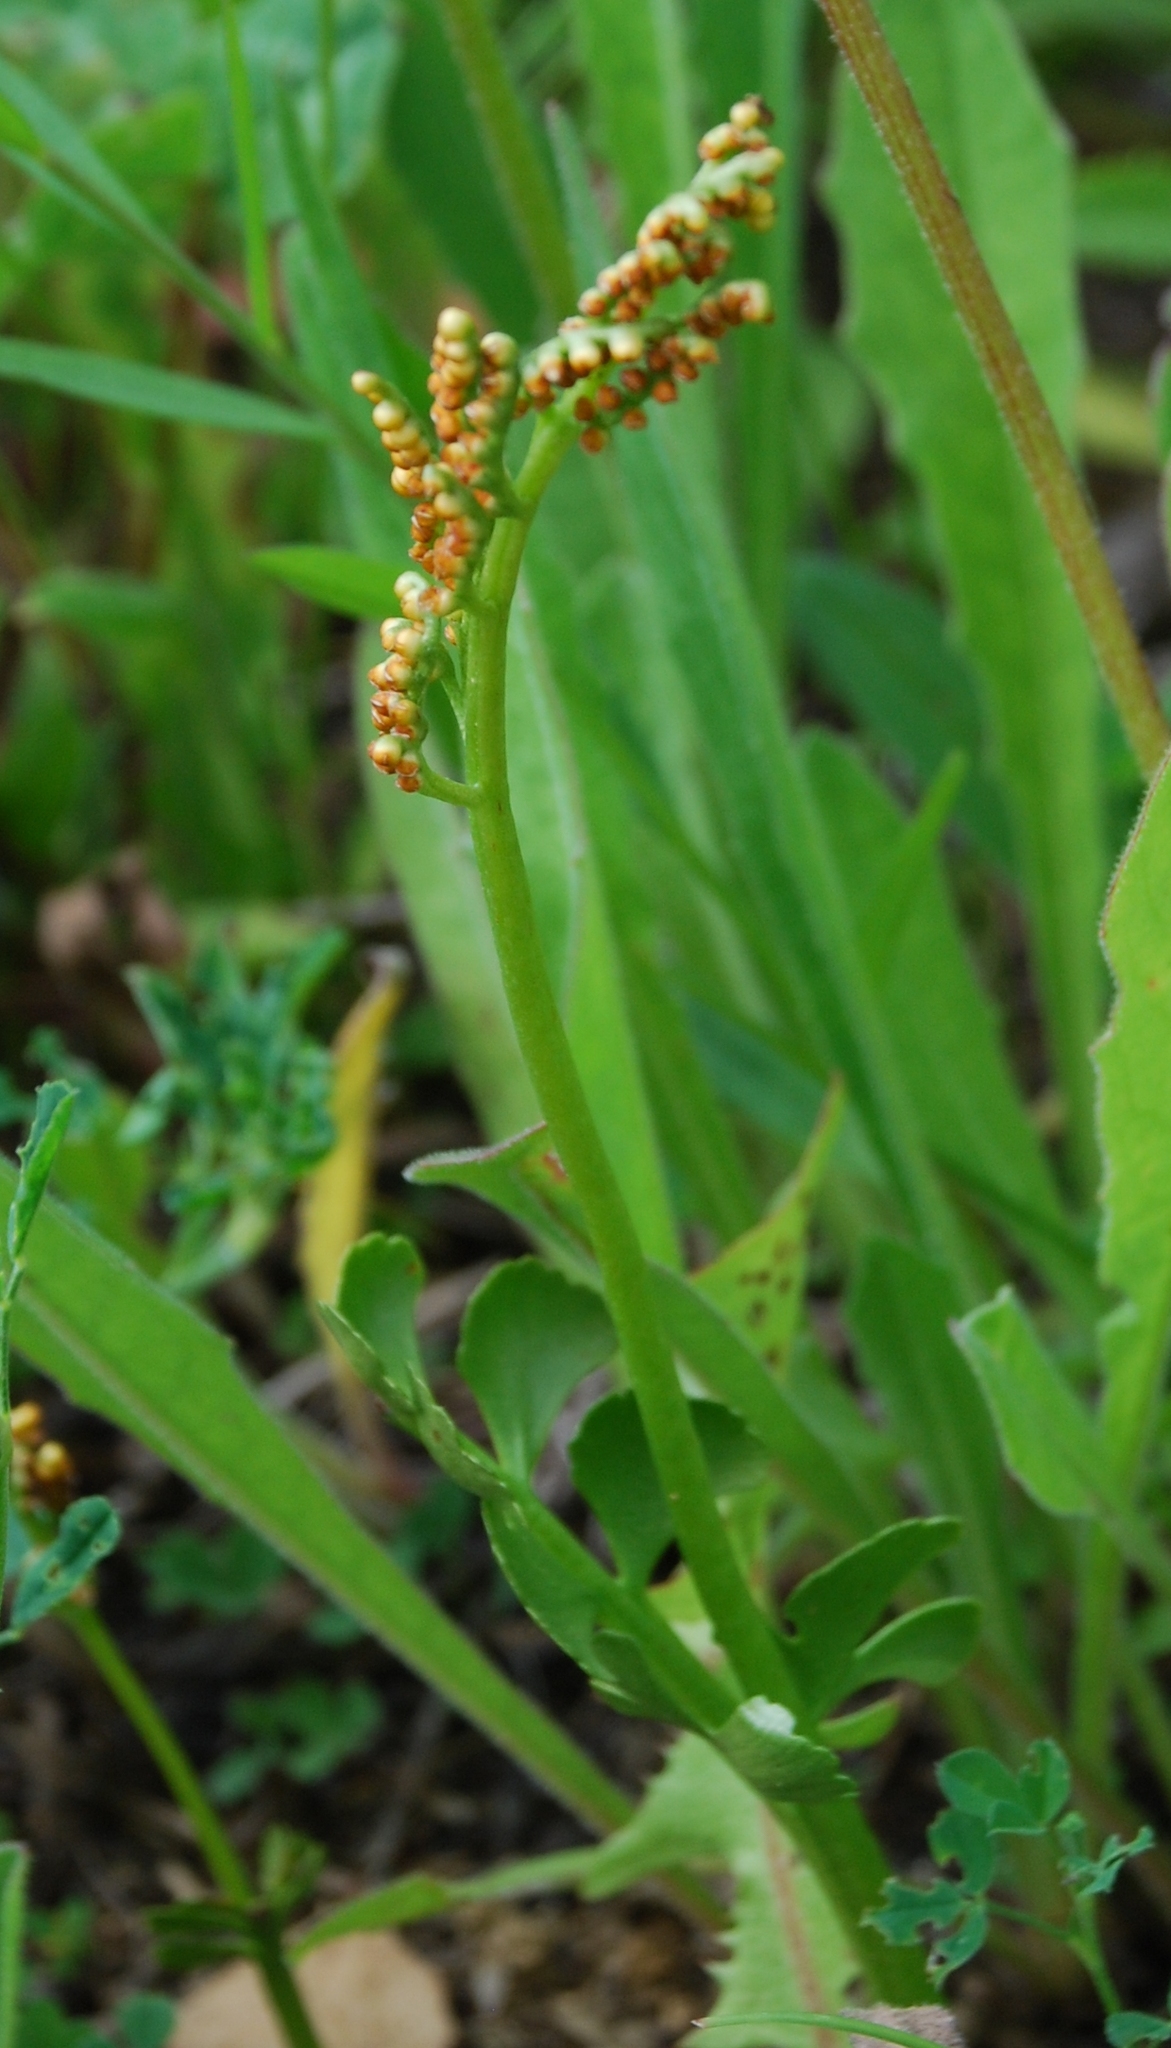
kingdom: Plantae
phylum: Tracheophyta
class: Polypodiopsida
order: Ophioglossales
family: Ophioglossaceae
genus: Botrychium
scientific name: Botrychium lunaria
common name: Moonwort
